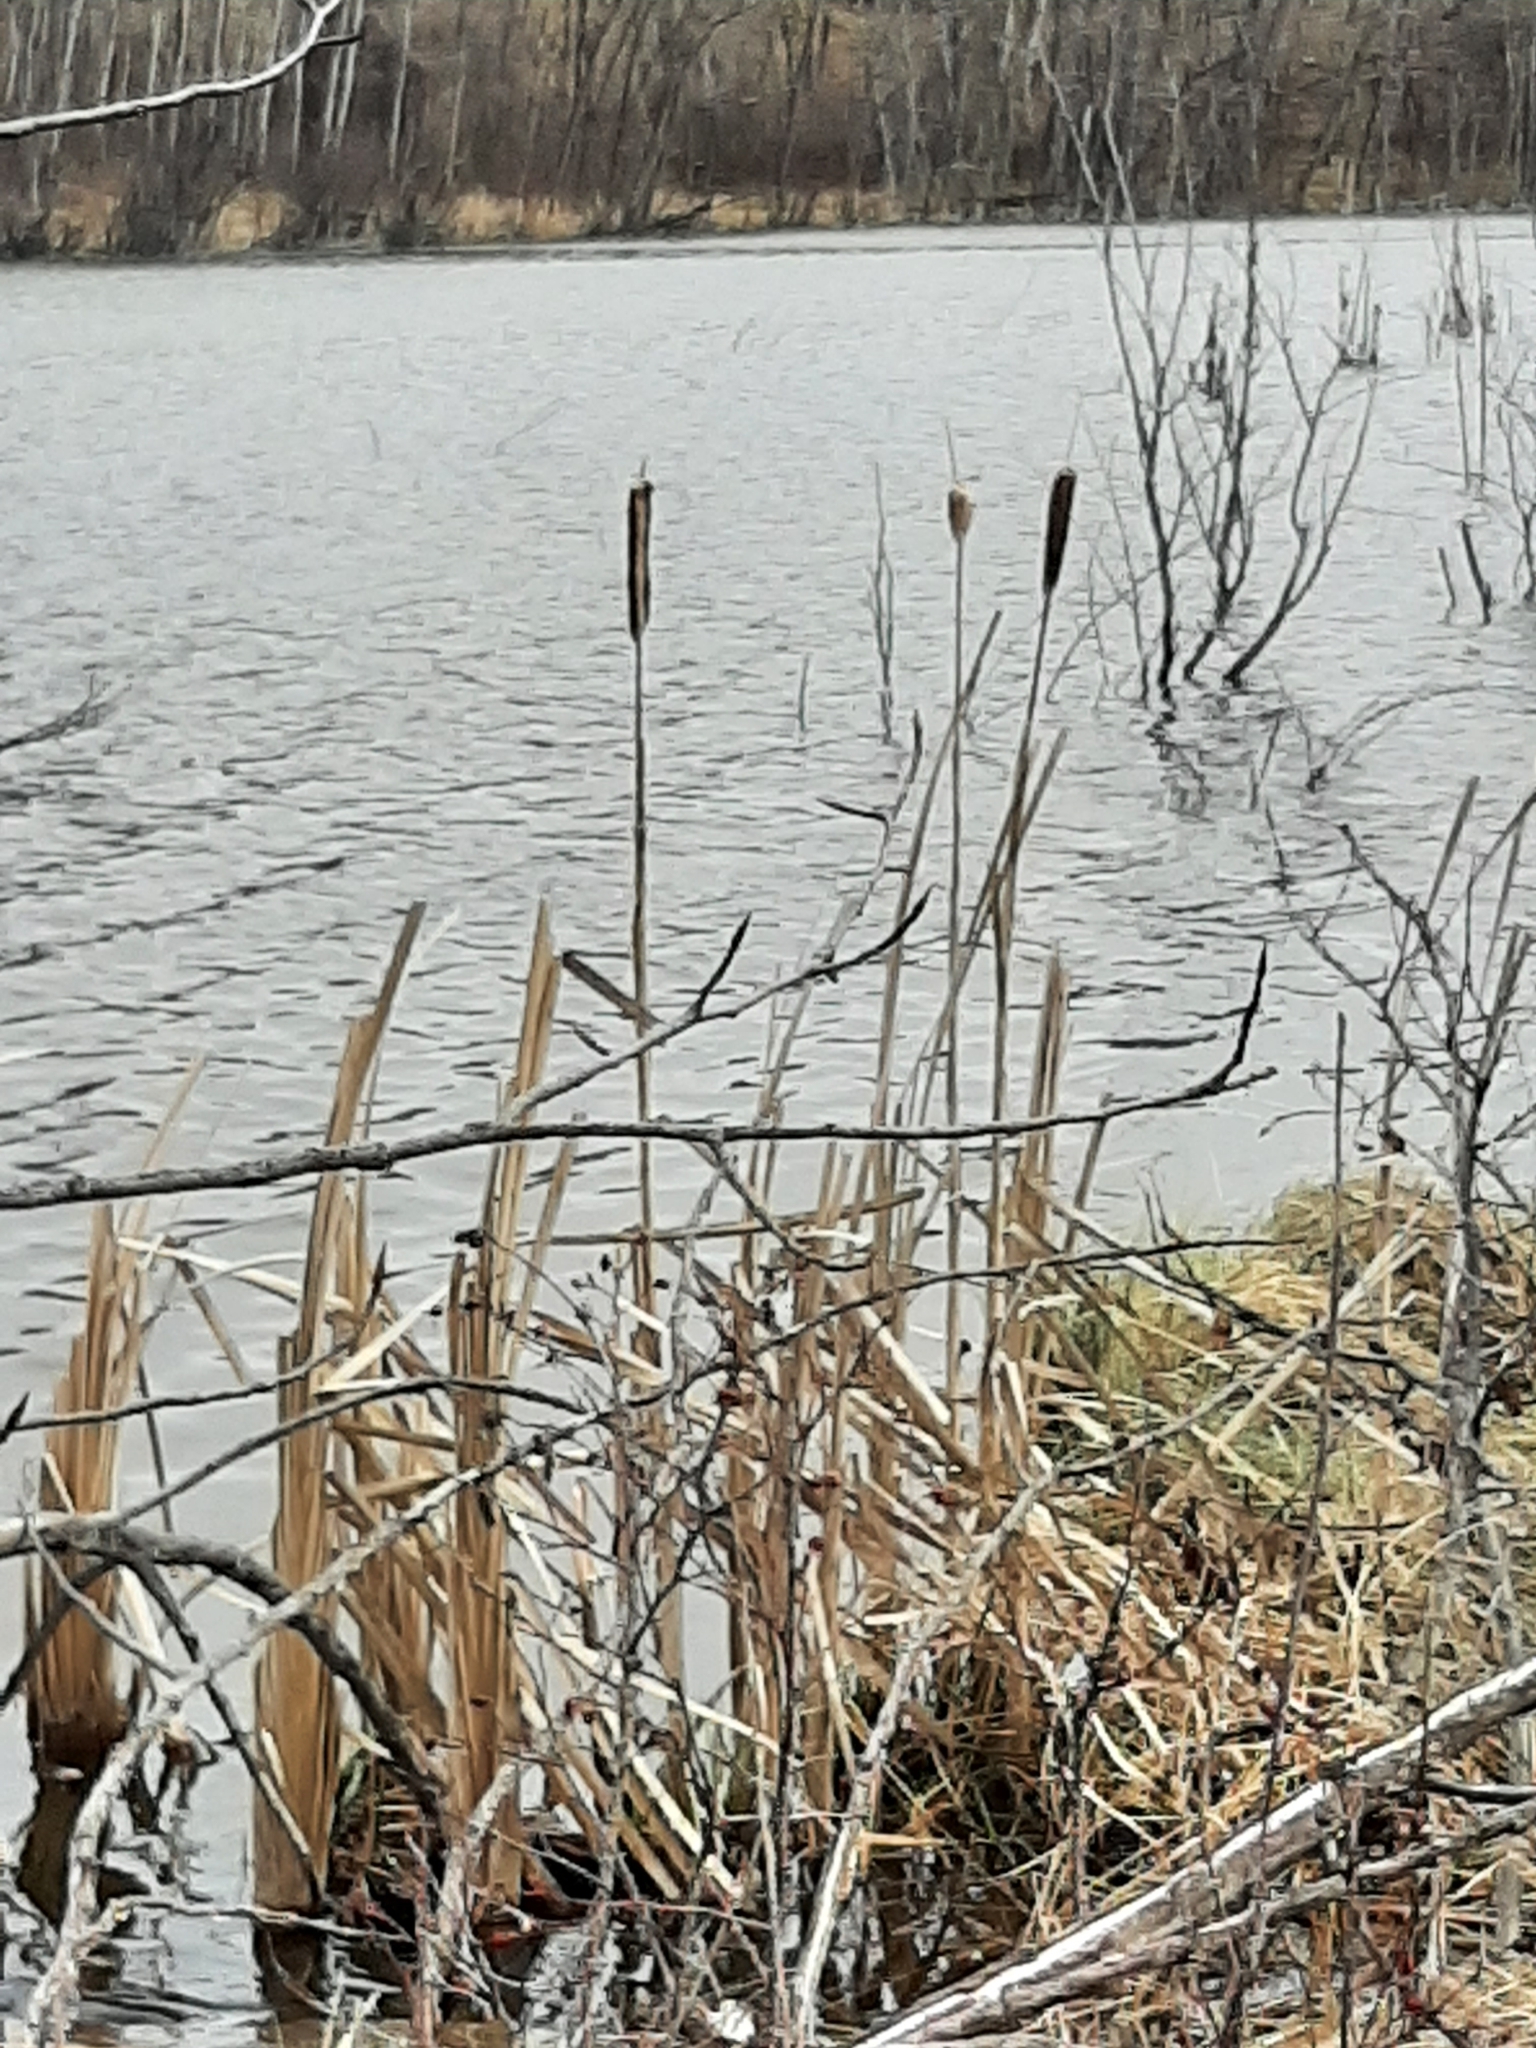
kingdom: Plantae
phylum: Tracheophyta
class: Liliopsida
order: Poales
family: Typhaceae
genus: Typha
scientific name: Typha latifolia
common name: Broadleaf cattail
